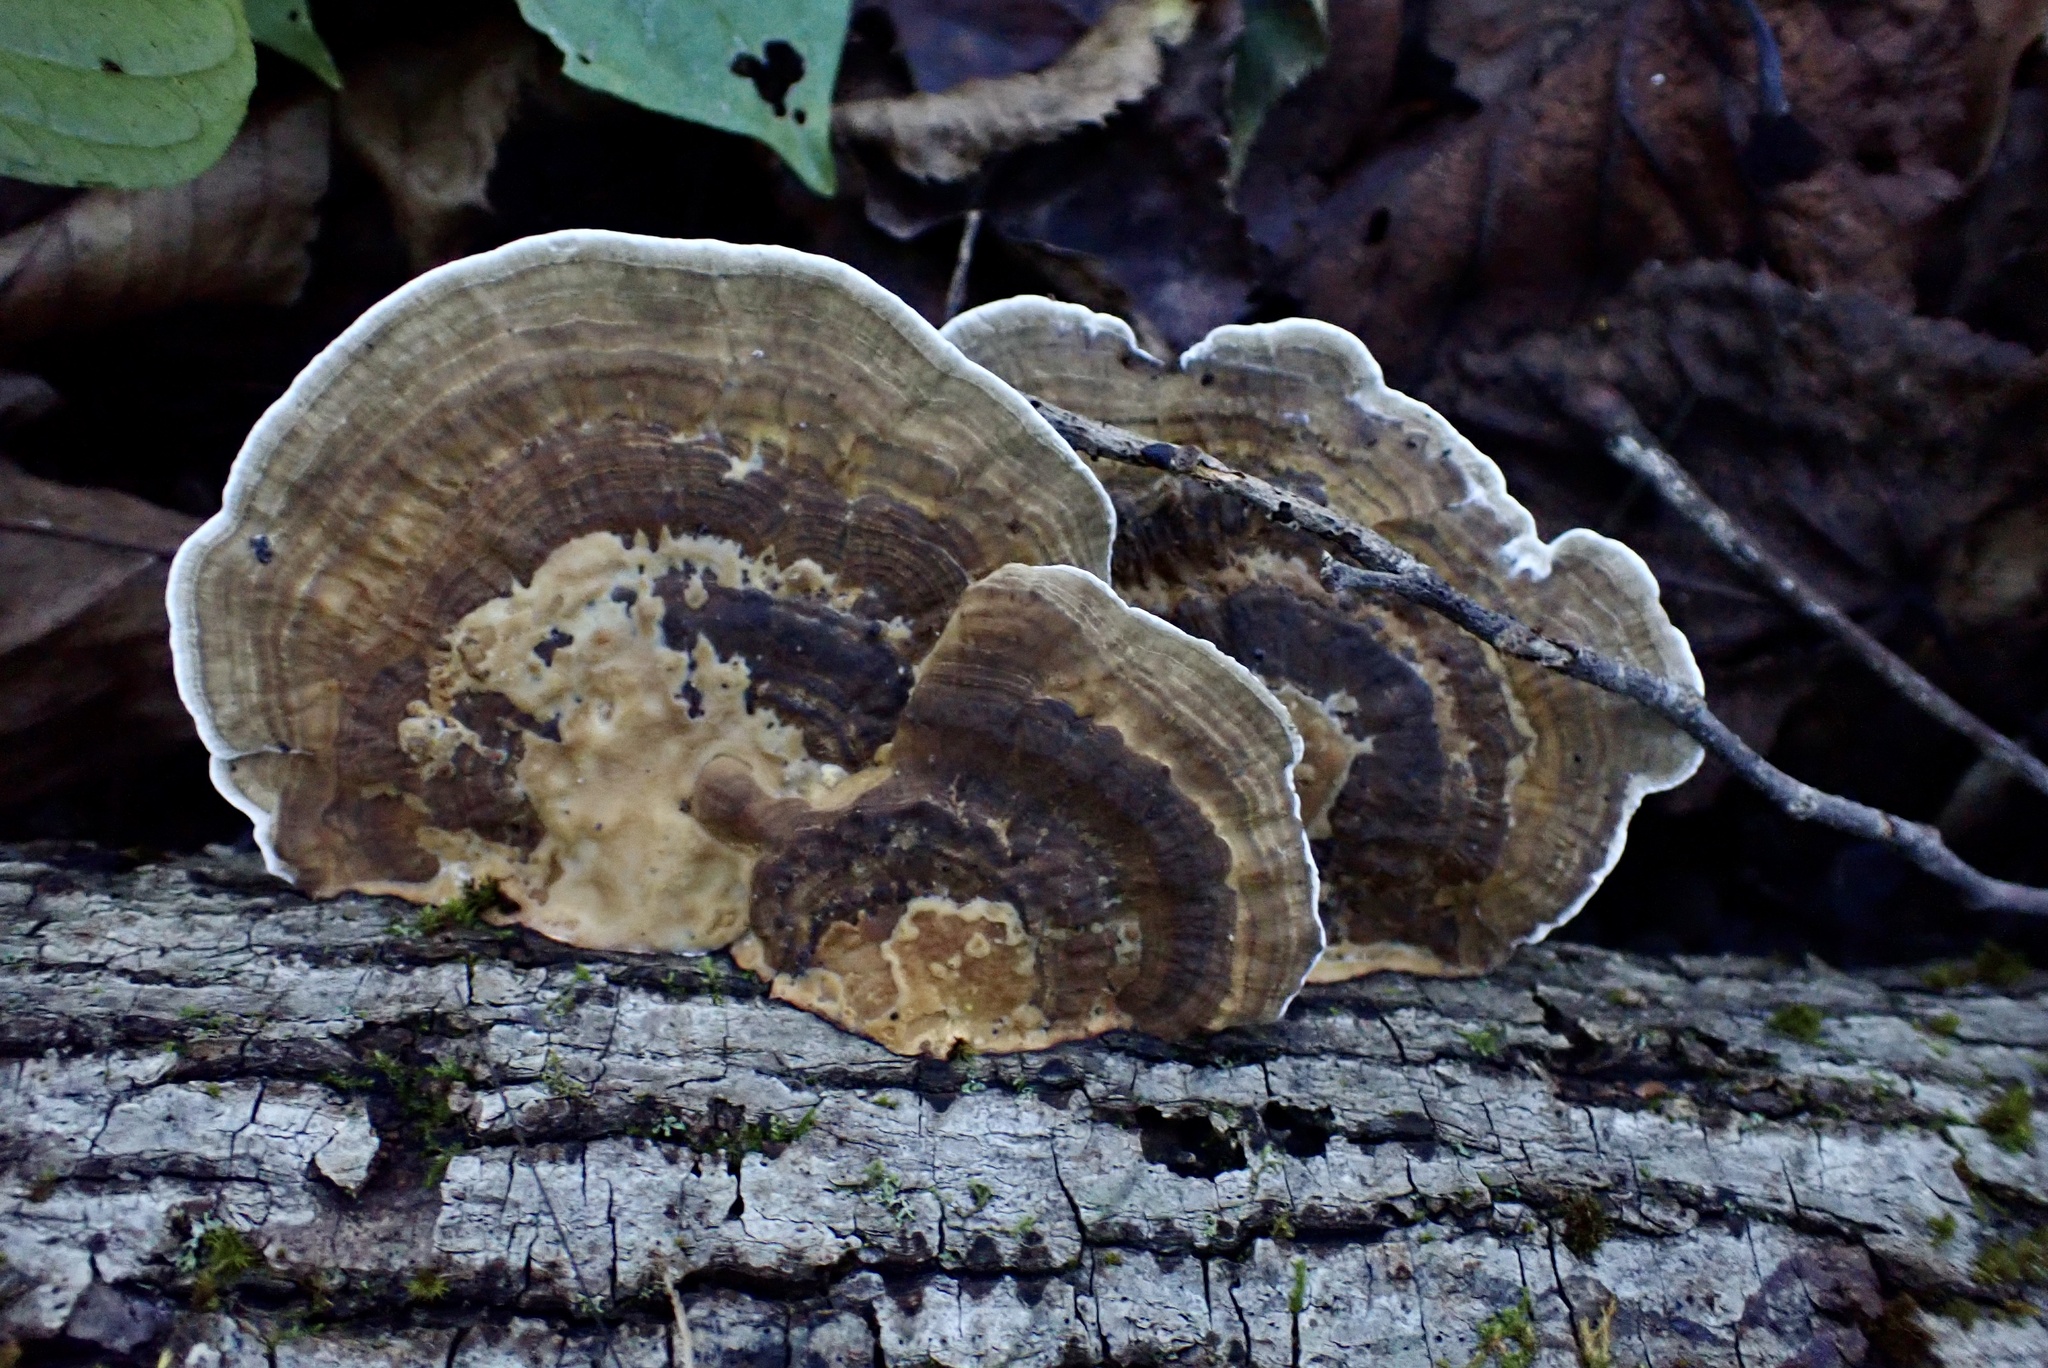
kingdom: Fungi
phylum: Basidiomycota
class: Agaricomycetes
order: Polyporales
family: Polyporaceae
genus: Daedaleopsis
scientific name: Daedaleopsis confragosa
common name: Blushing bracket
